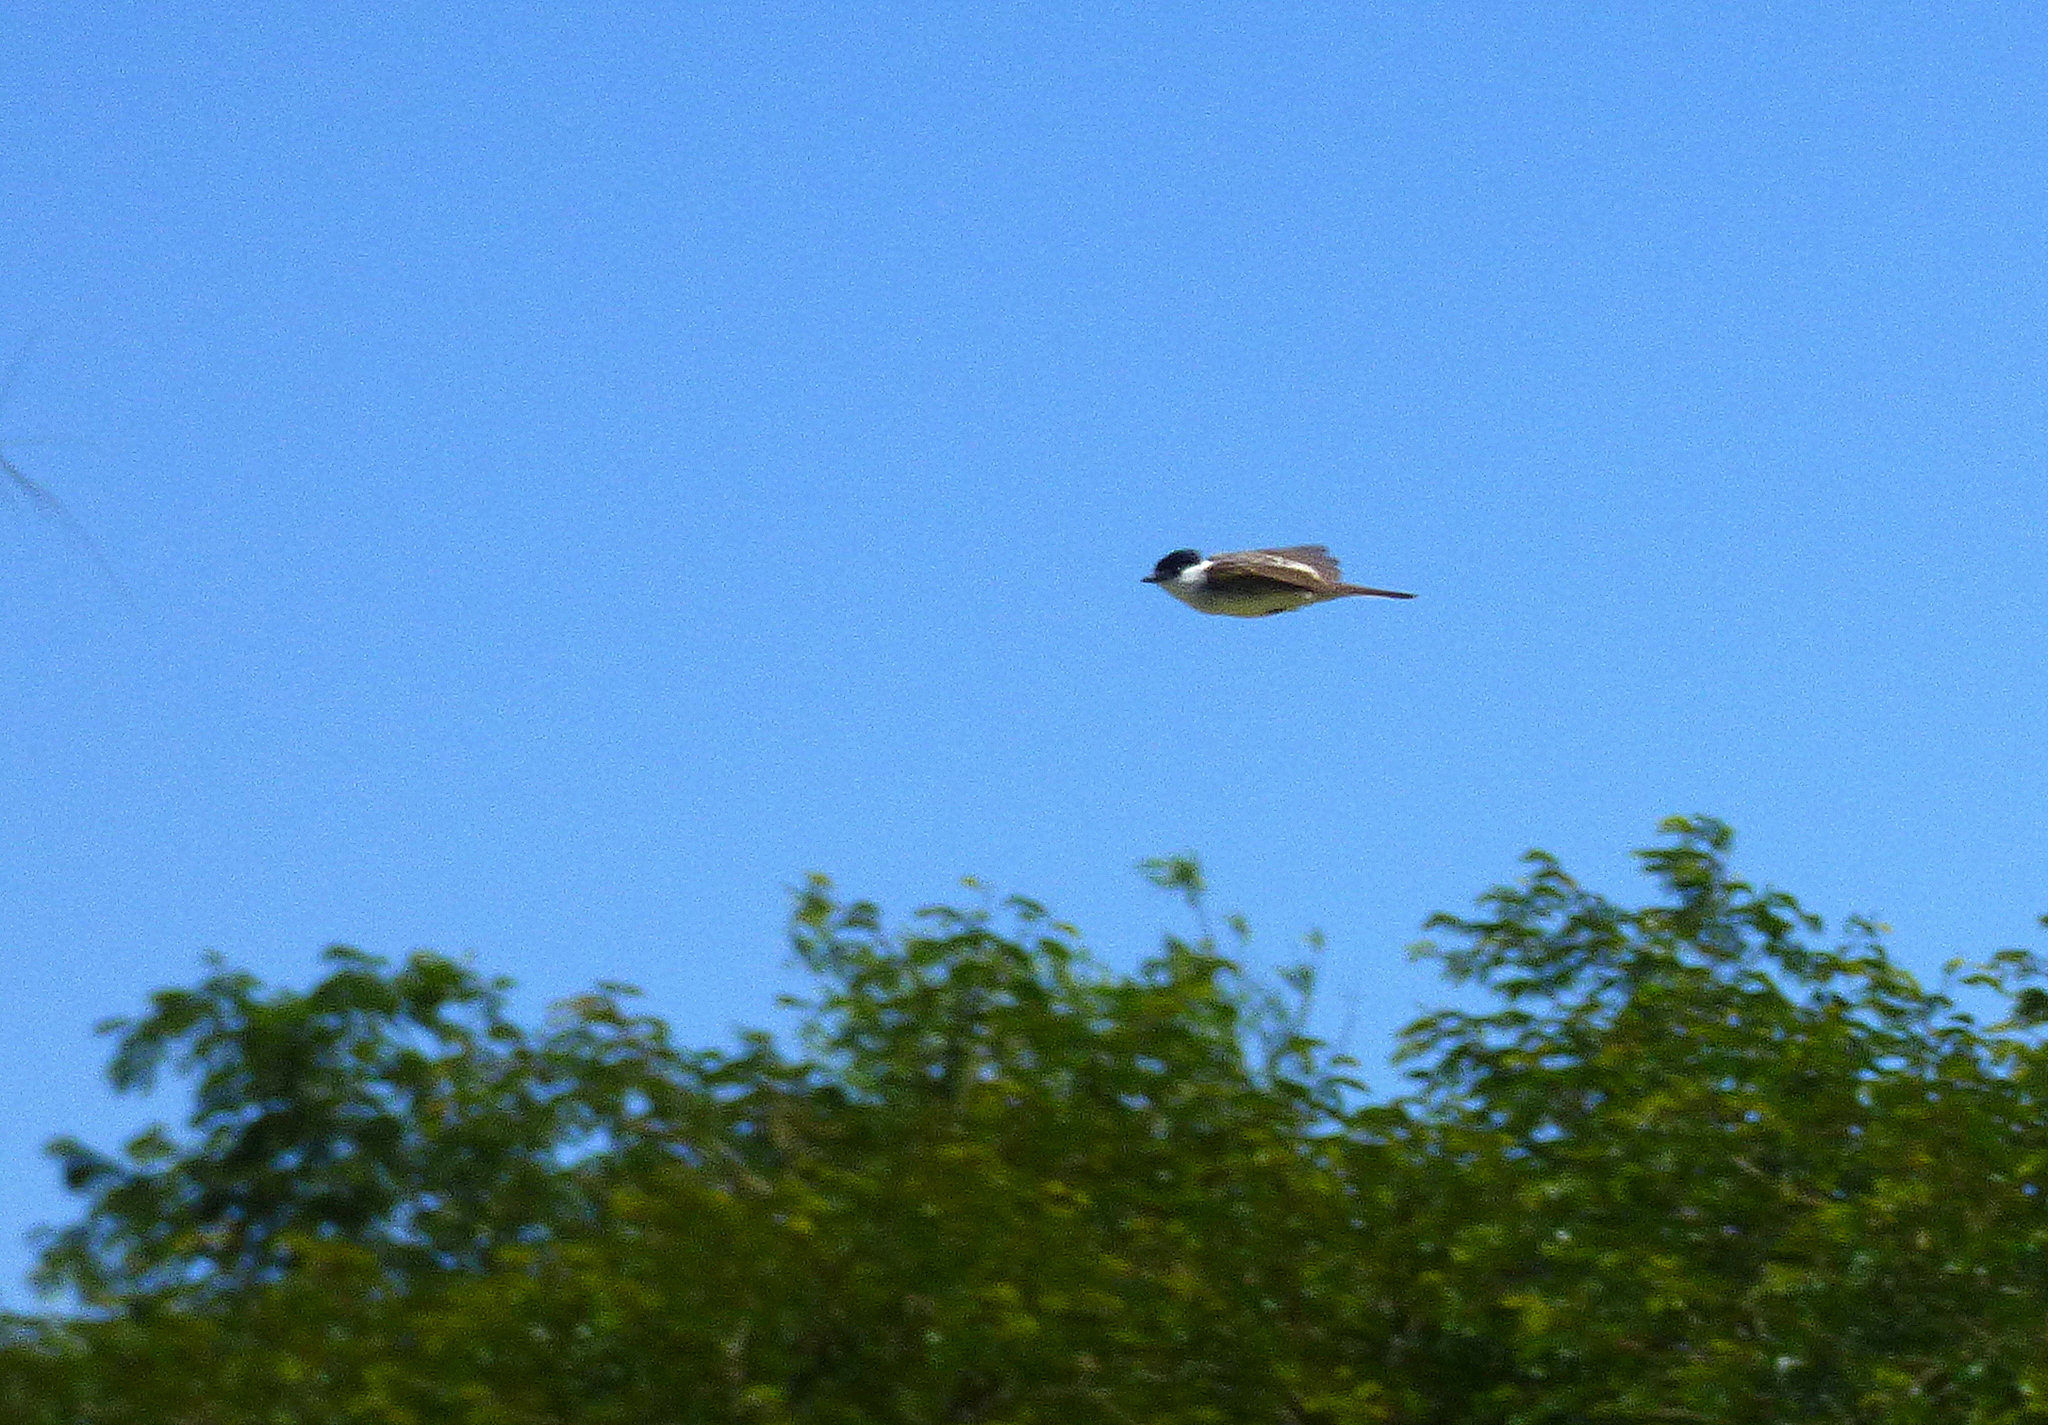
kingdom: Animalia
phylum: Chordata
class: Aves
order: Passeriformes
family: Cotingidae
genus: Xenopsaris
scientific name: Xenopsaris albinucha
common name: White-naped xenopsaris
